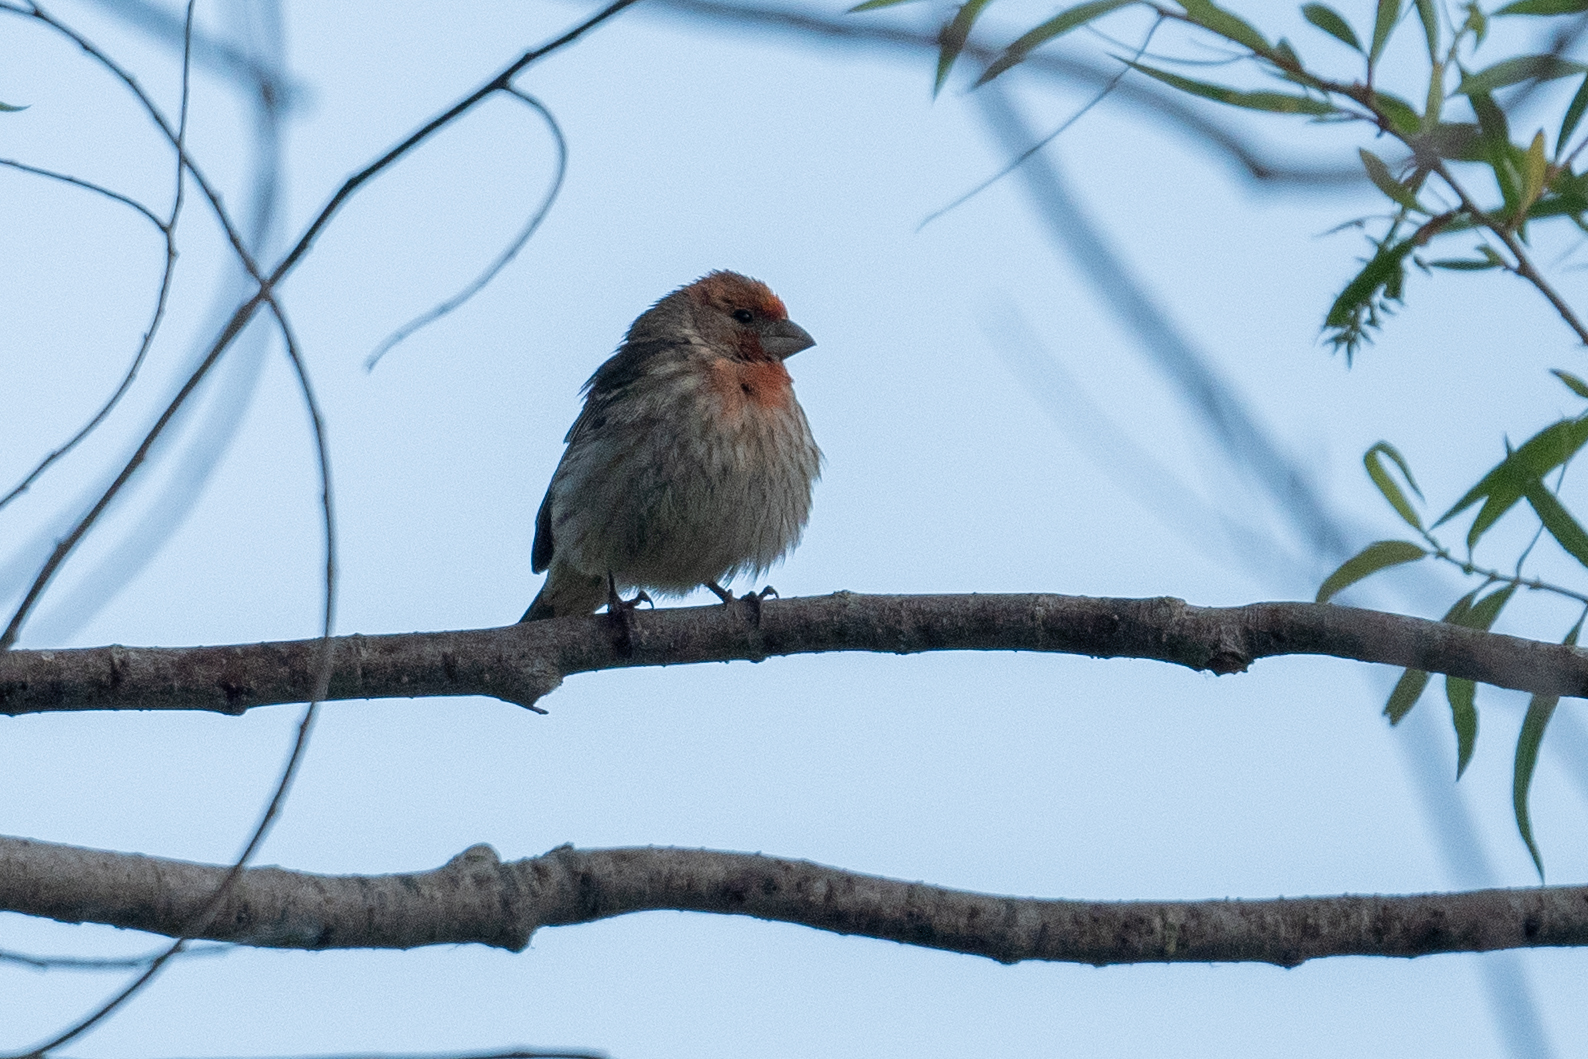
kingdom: Animalia
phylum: Chordata
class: Aves
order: Passeriformes
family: Fringillidae
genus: Haemorhous
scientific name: Haemorhous mexicanus
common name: House finch
